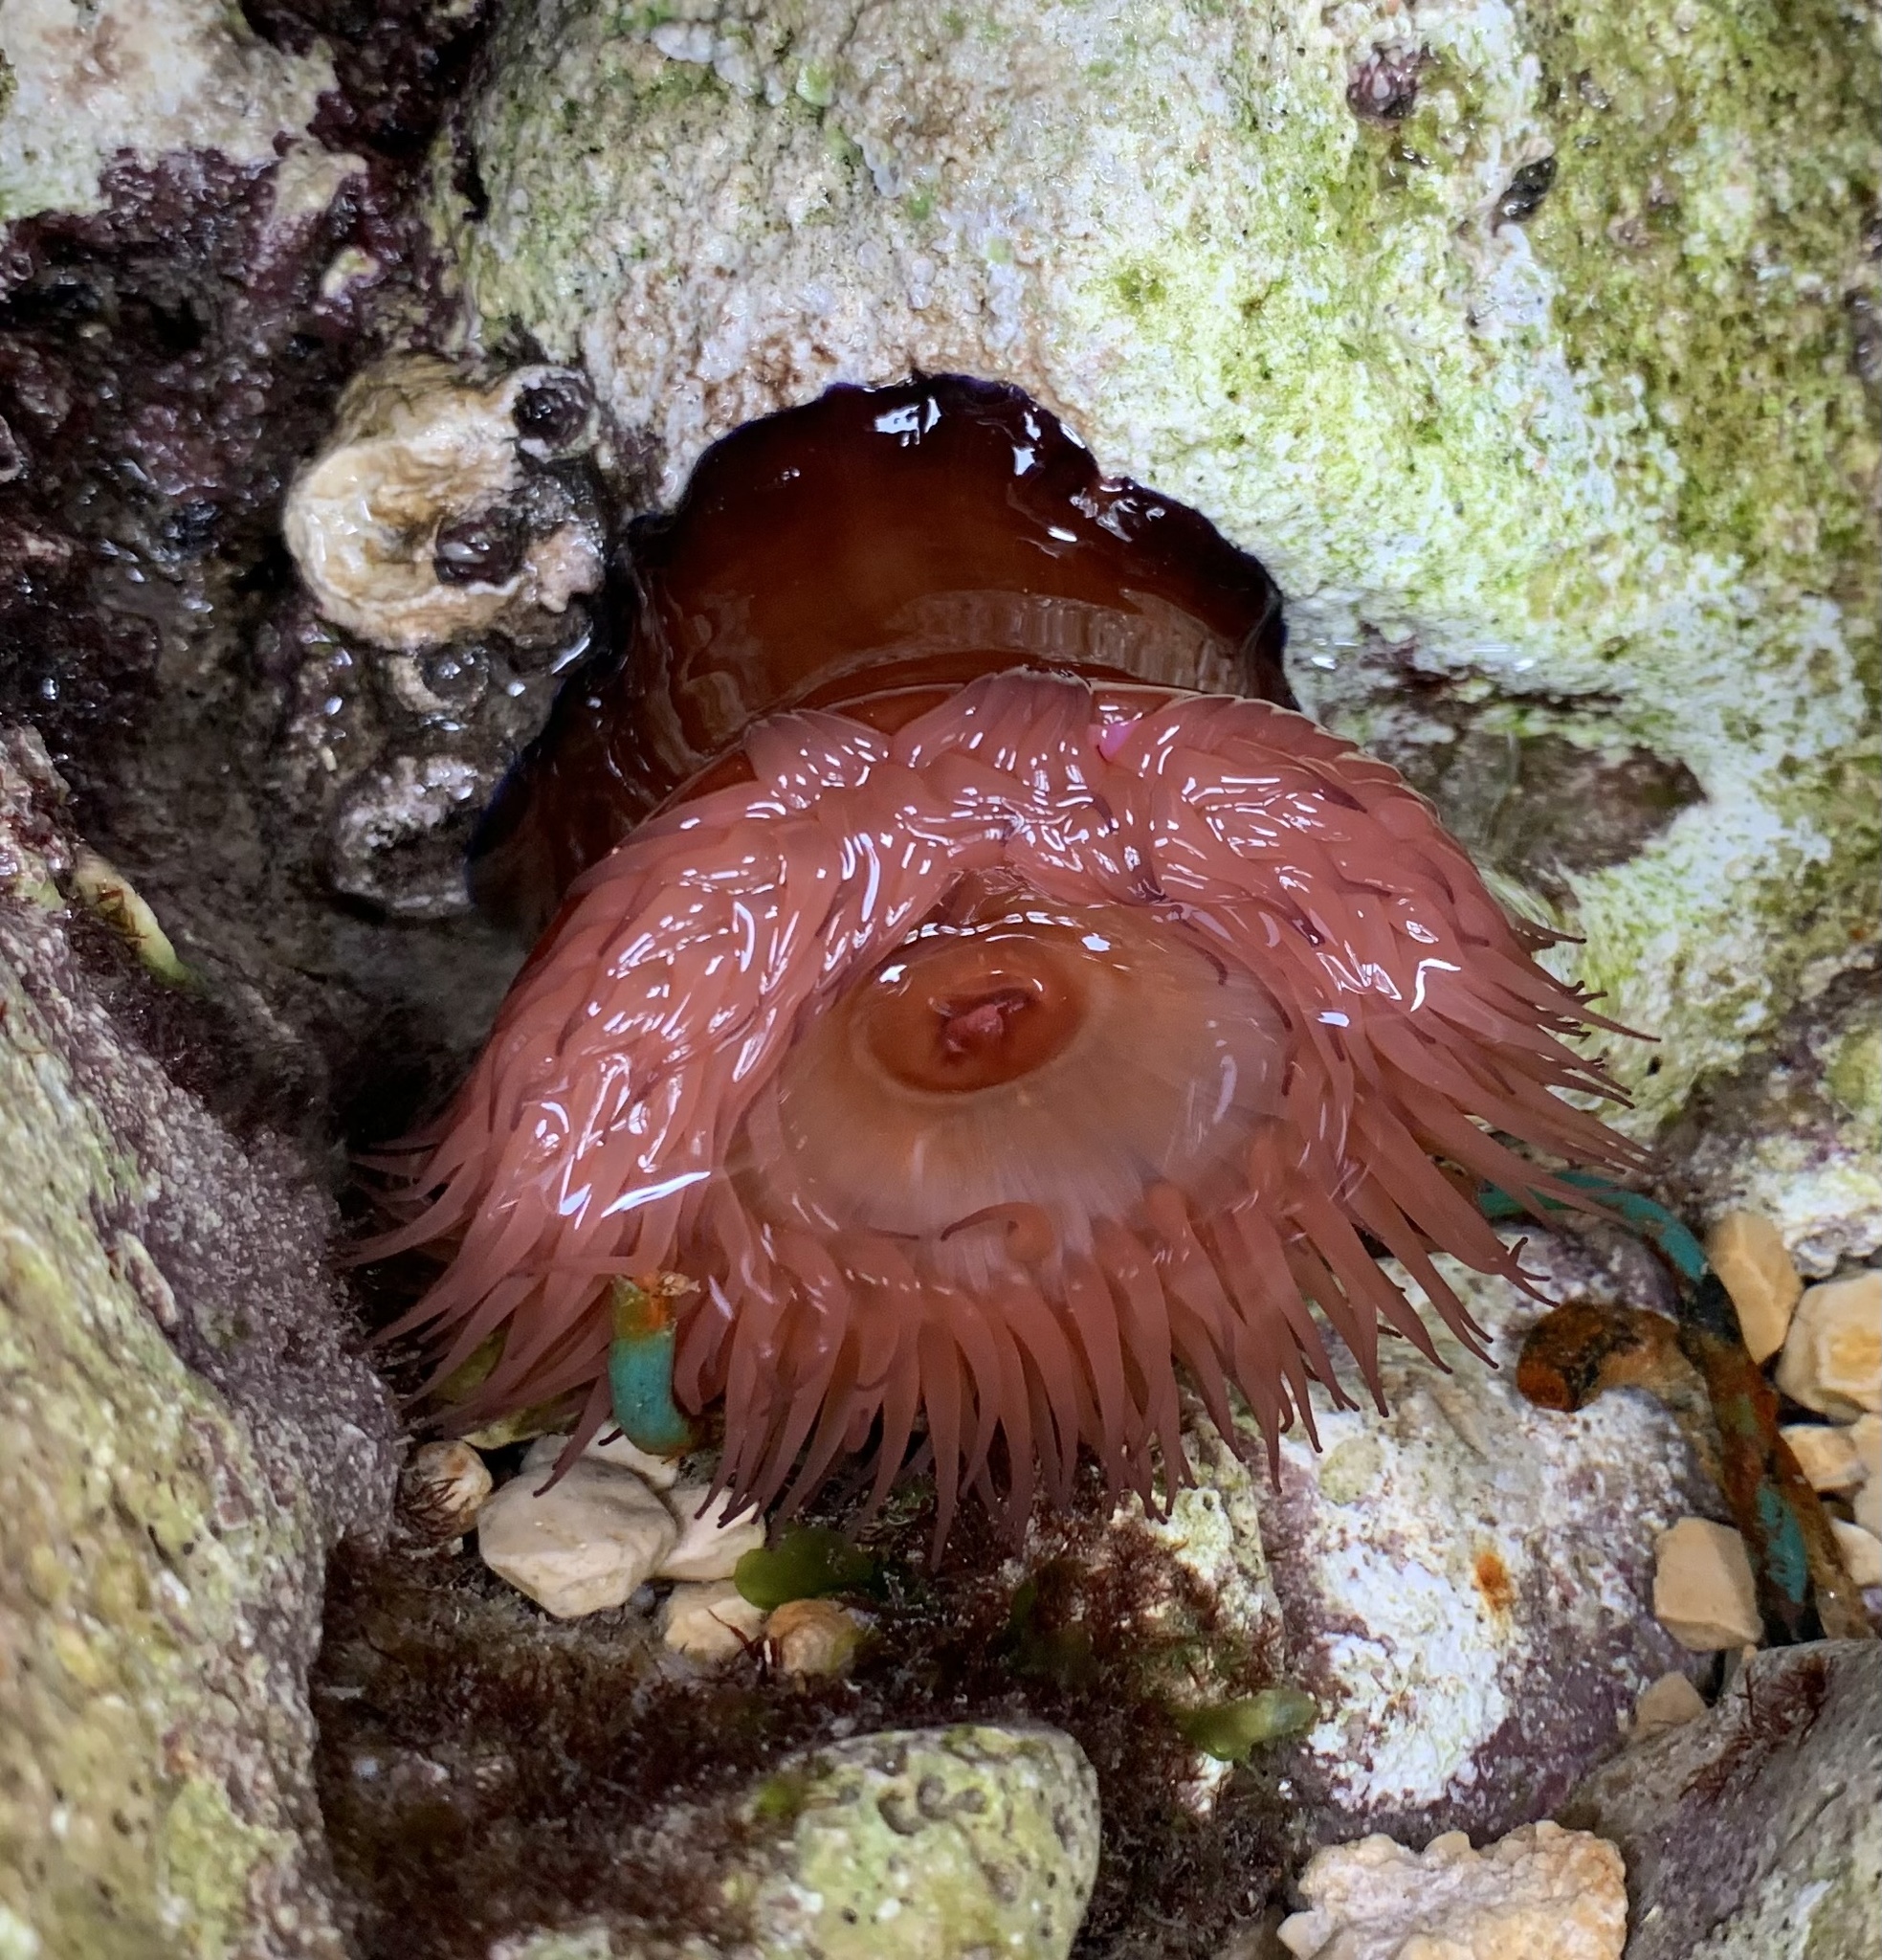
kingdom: Animalia
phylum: Cnidaria
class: Anthozoa
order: Actiniaria
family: Actiniidae
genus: Actinia
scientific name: Actinia mediterranea
